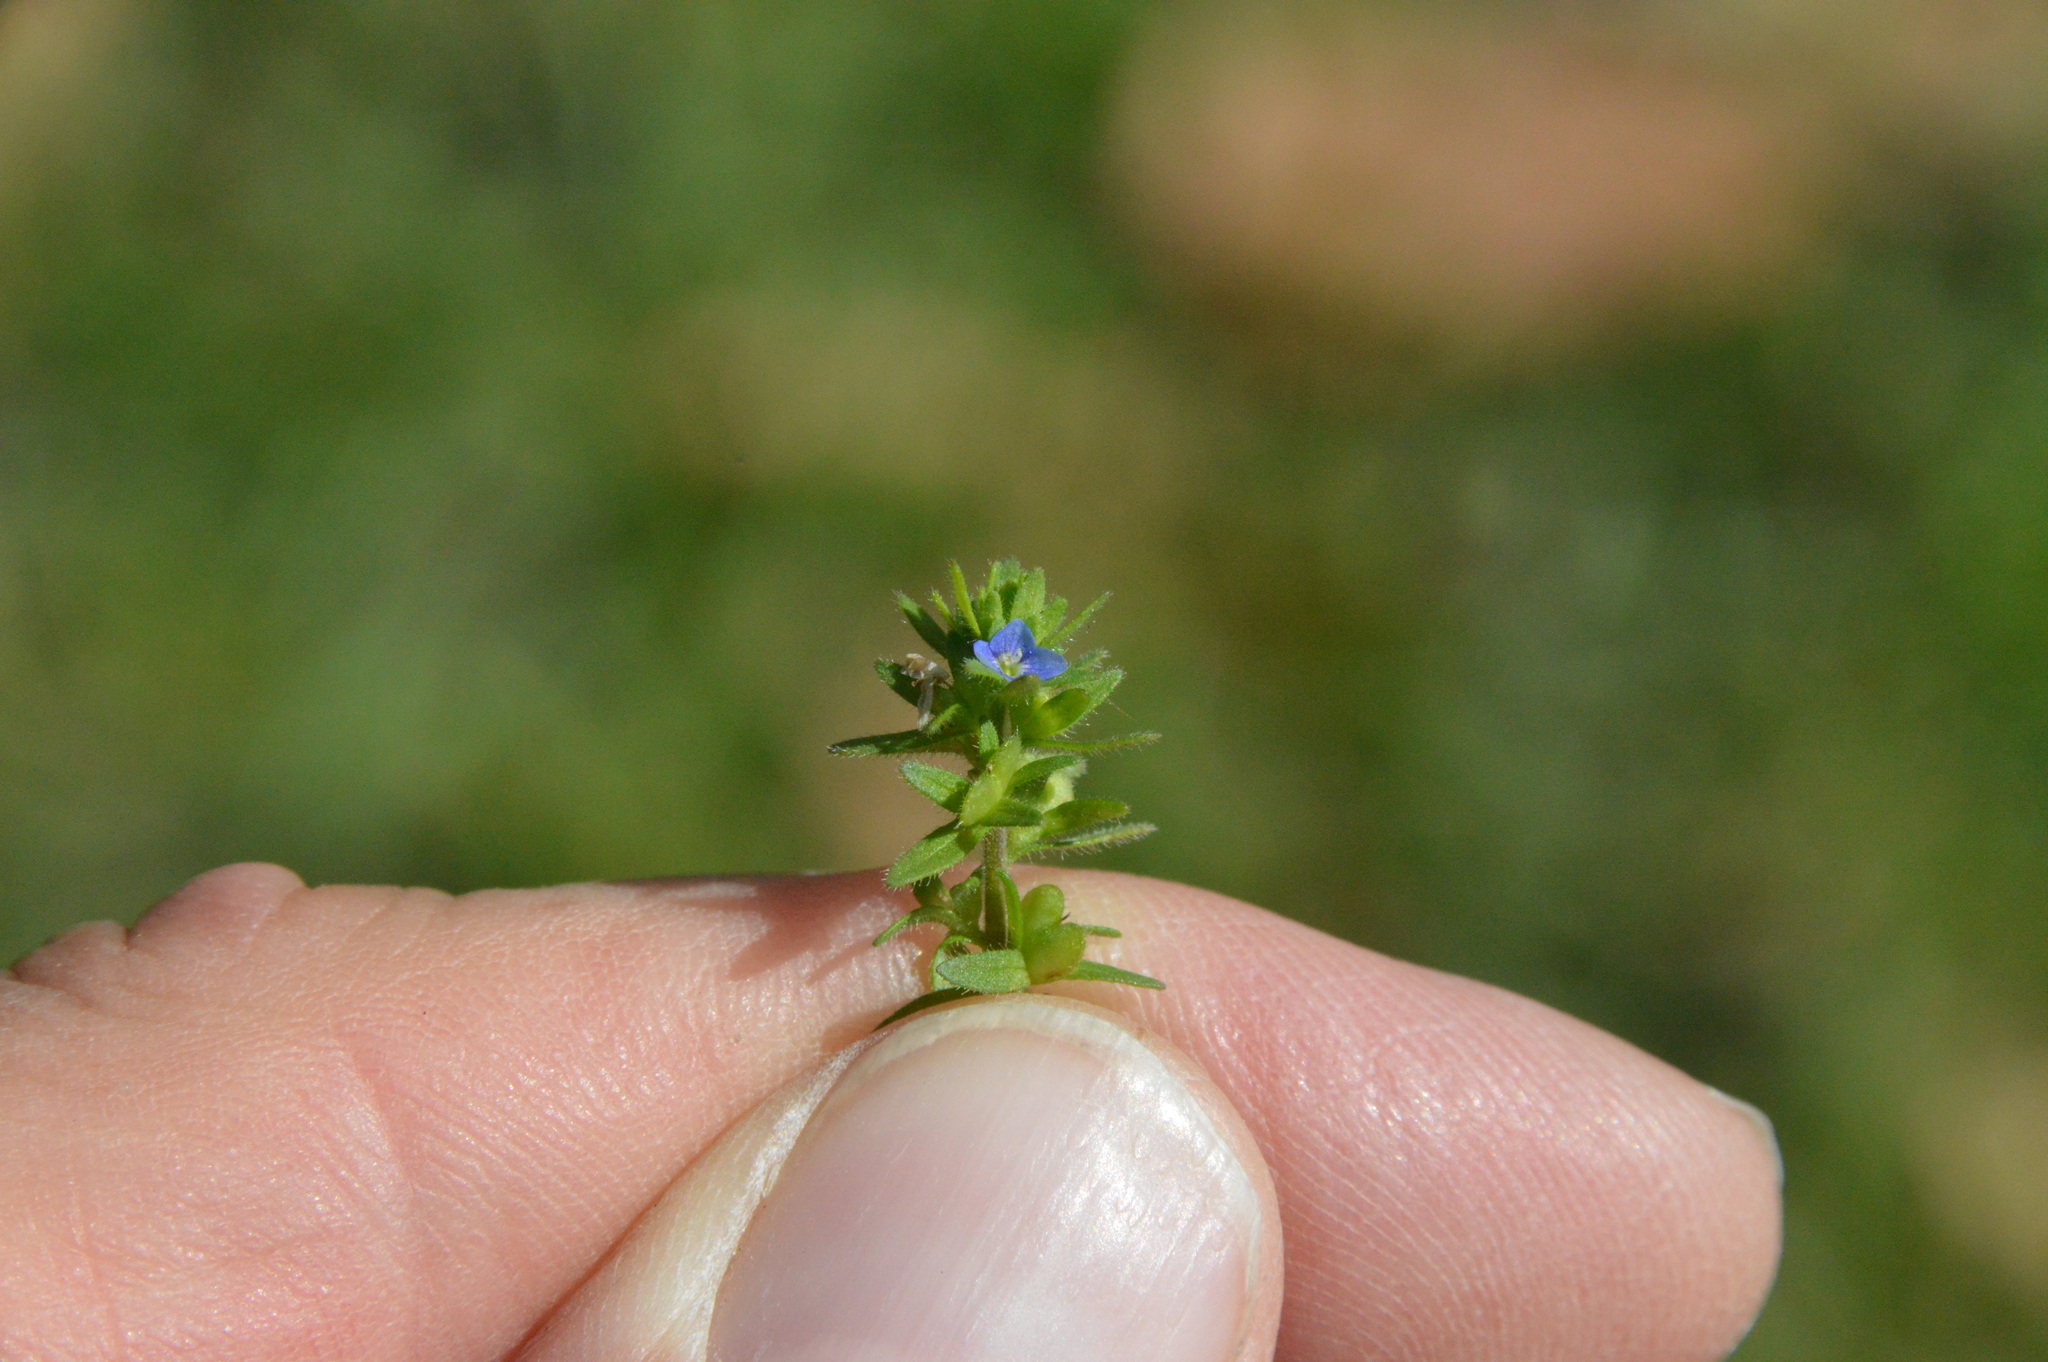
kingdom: Plantae
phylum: Tracheophyta
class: Magnoliopsida
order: Lamiales
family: Plantaginaceae
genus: Veronica
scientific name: Veronica arvensis
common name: Corn speedwell
